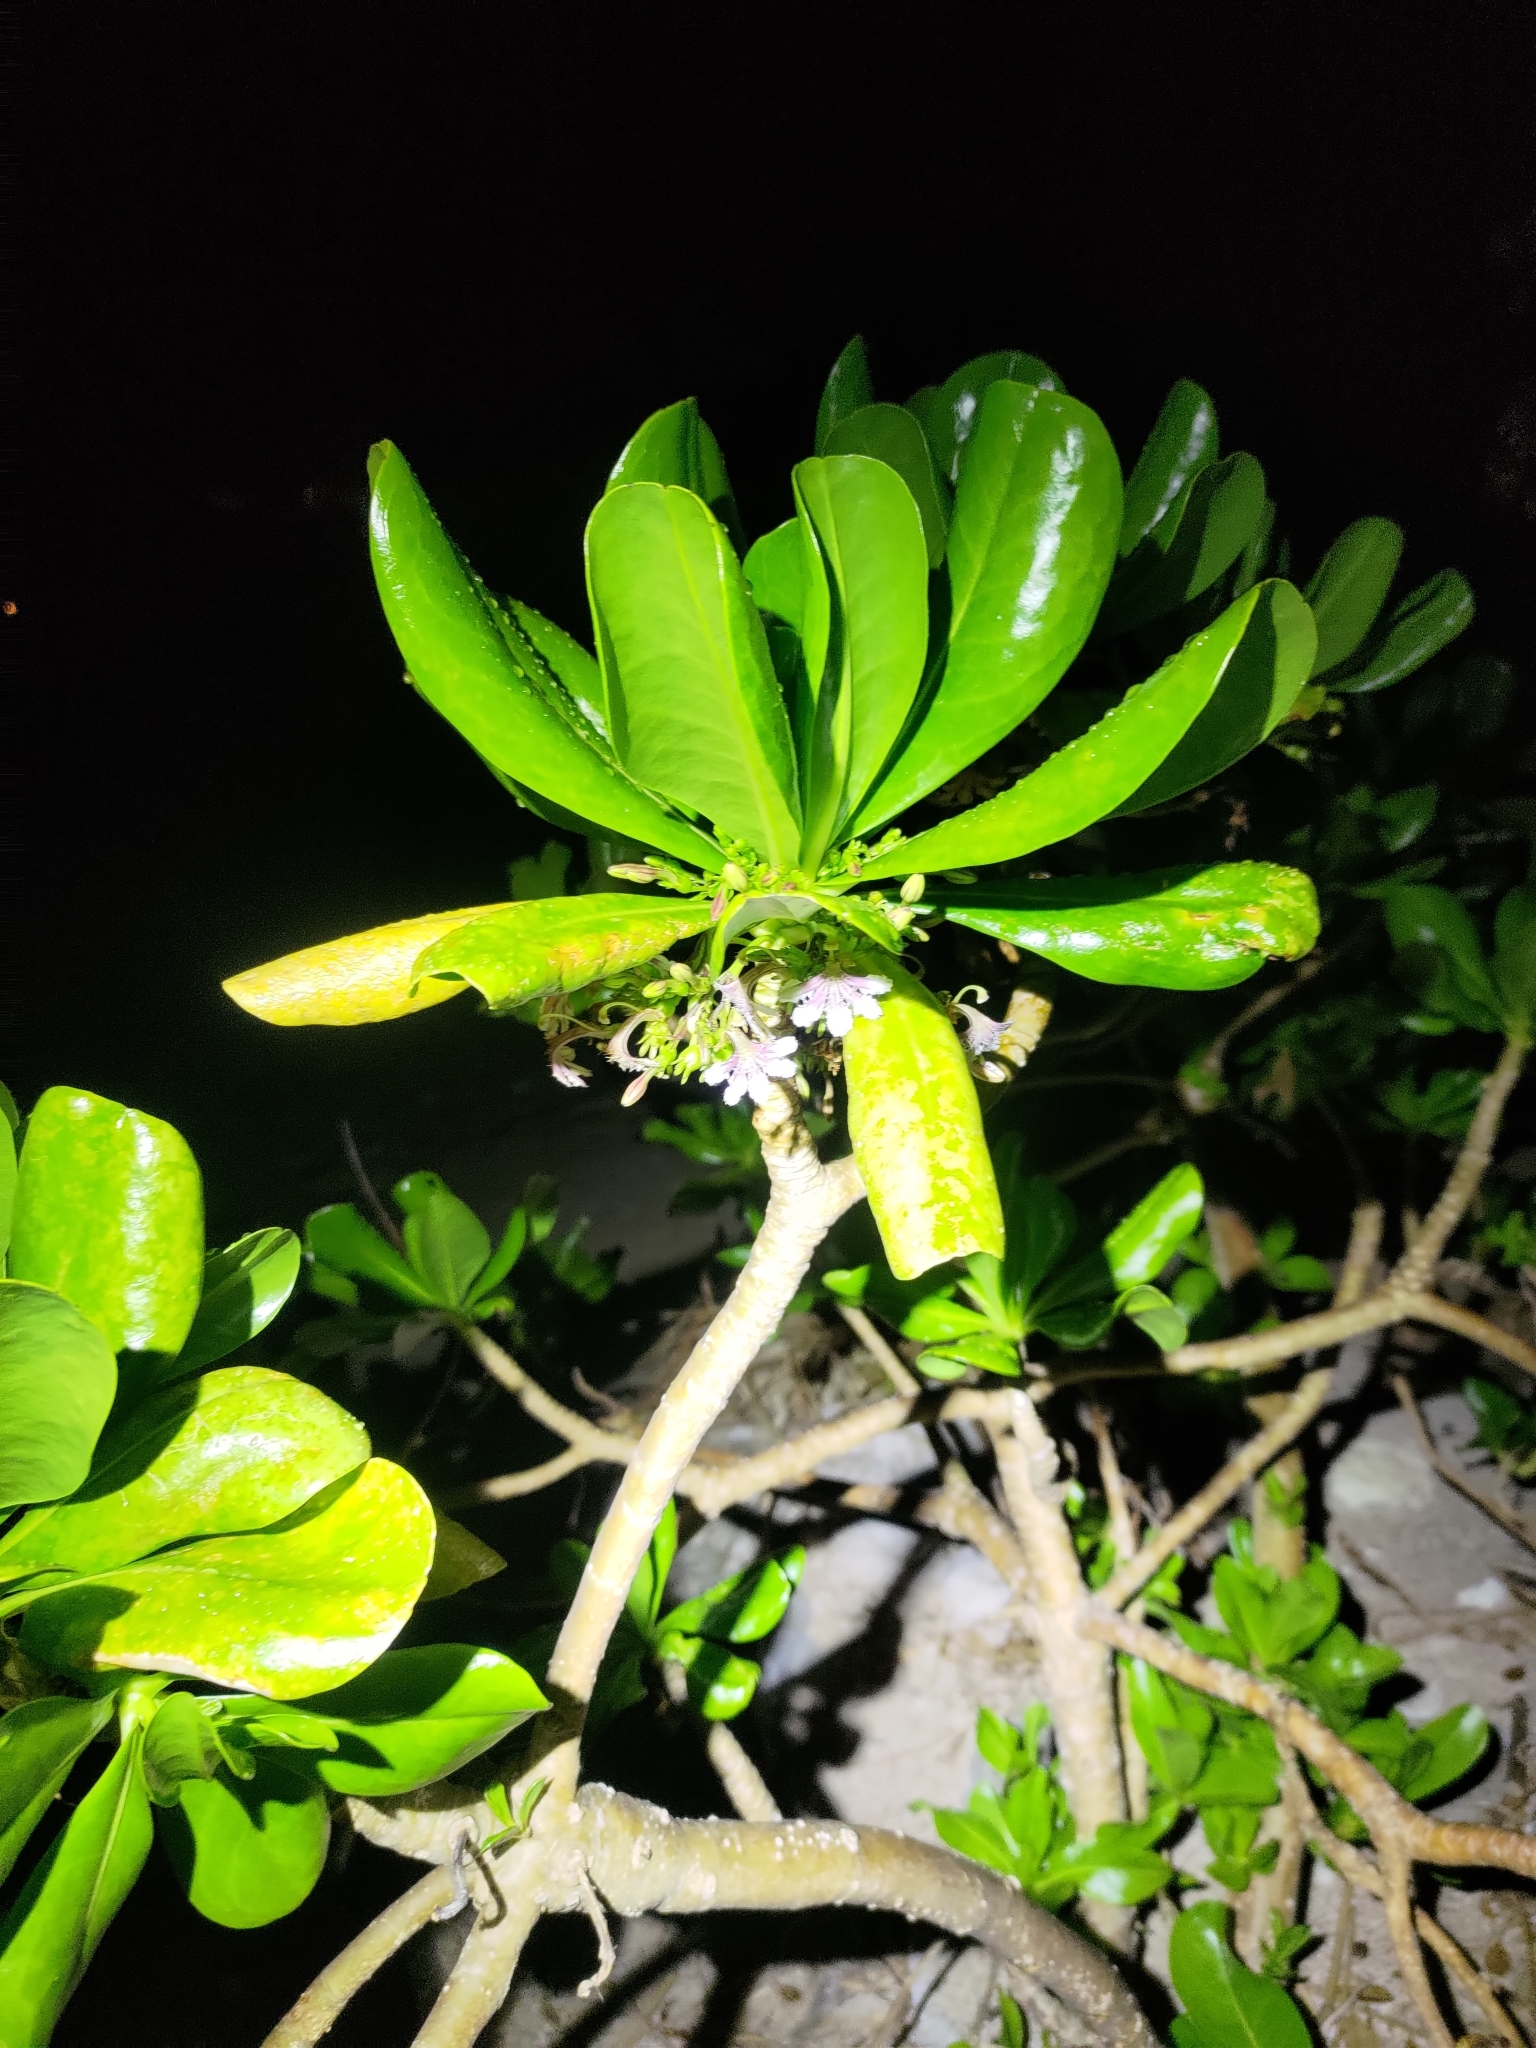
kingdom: Plantae
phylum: Tracheophyta
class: Magnoliopsida
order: Asterales
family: Goodeniaceae
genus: Scaevola
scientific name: Scaevola taccada
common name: Sea lettucetree
